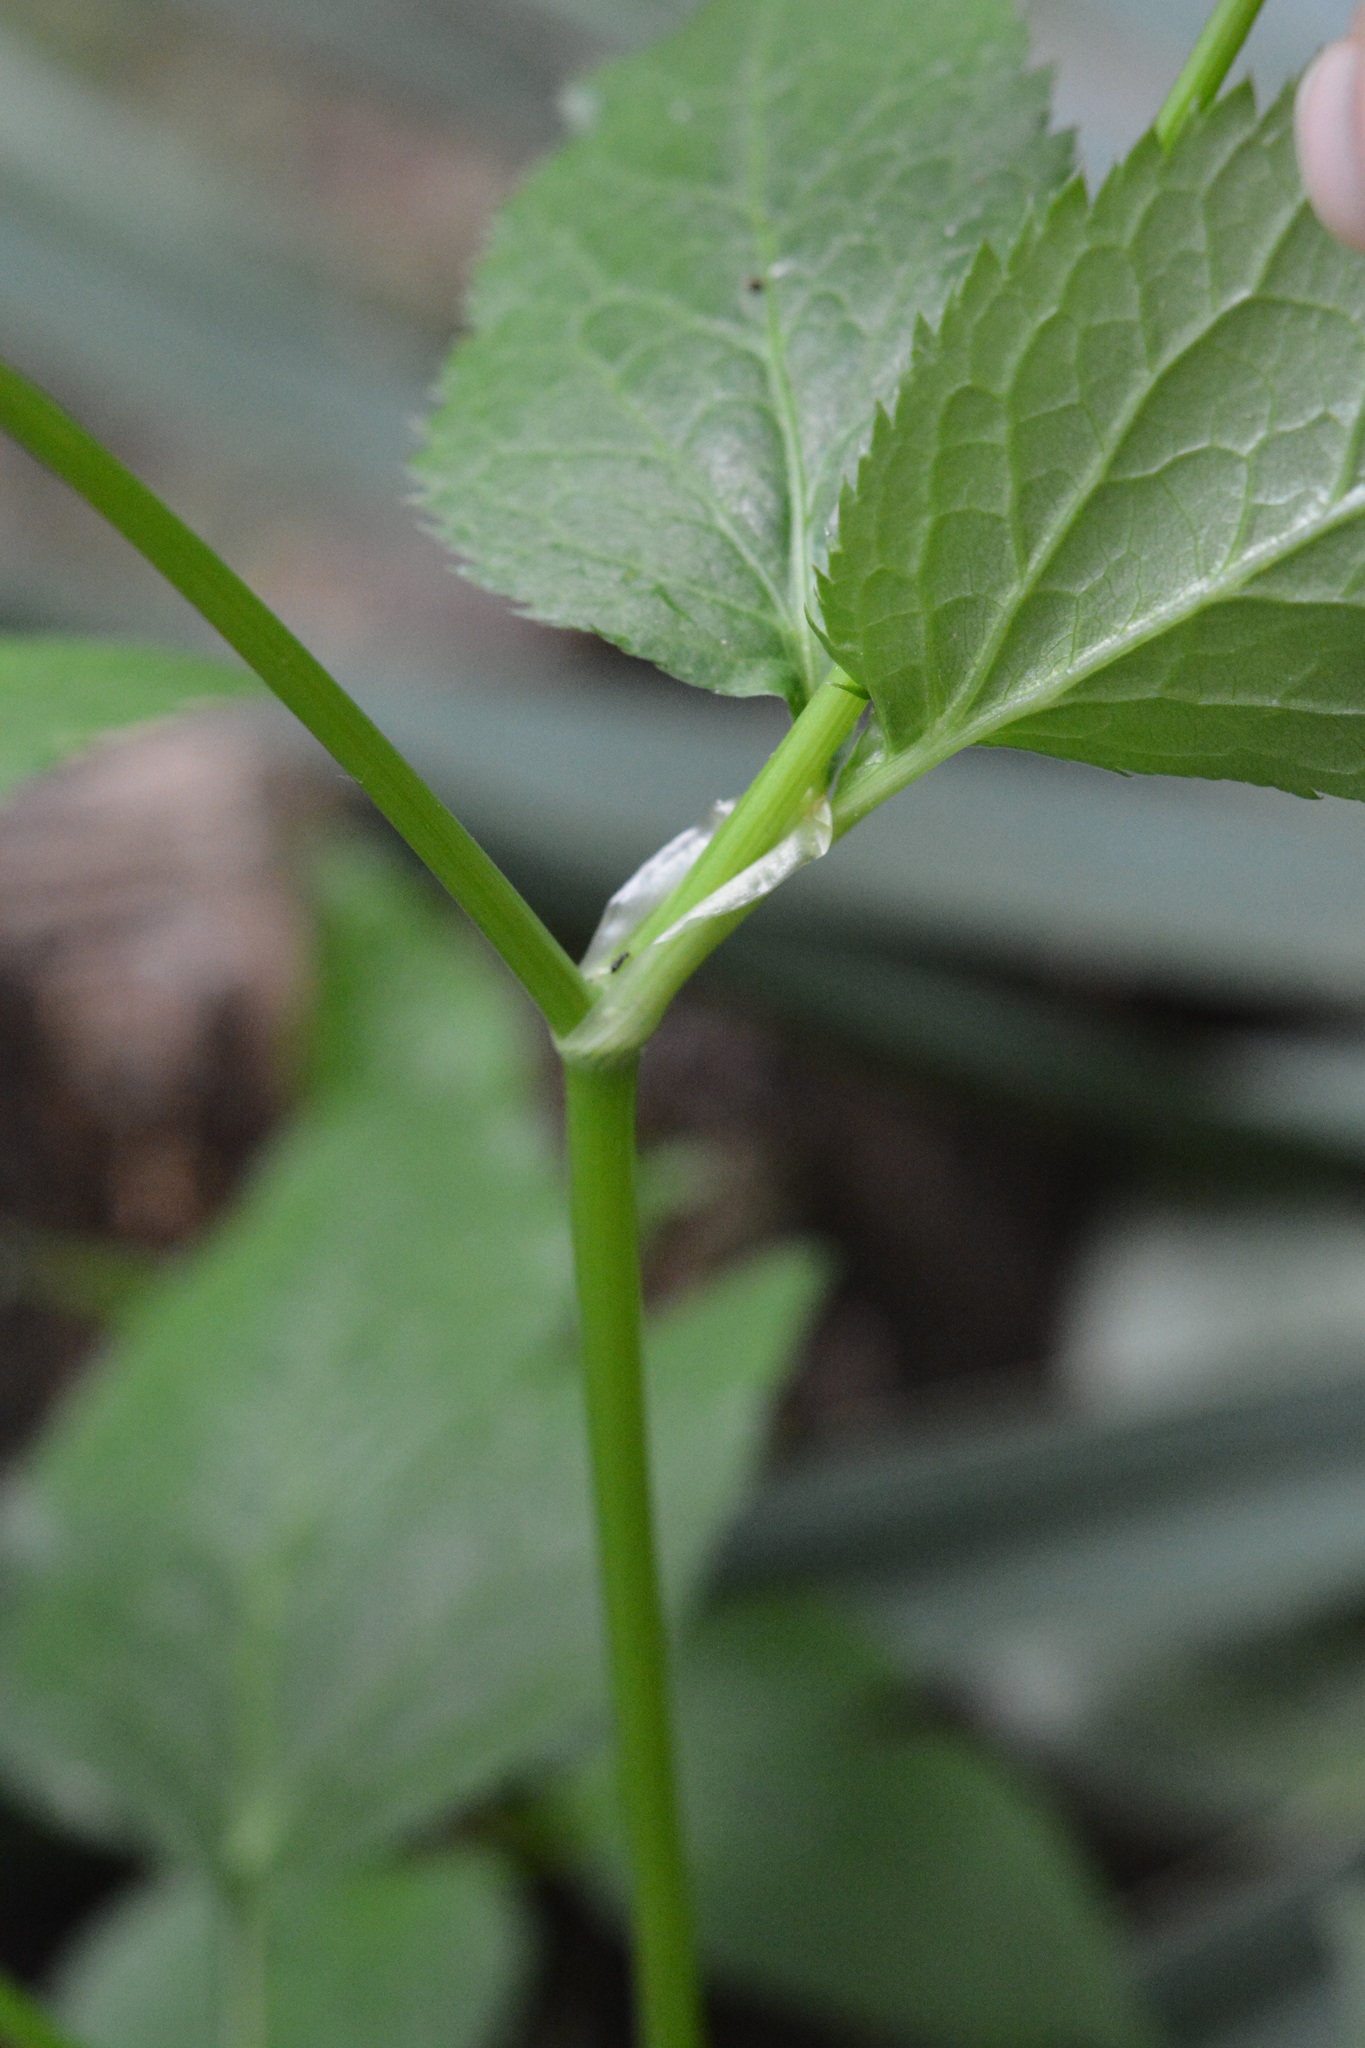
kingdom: Plantae
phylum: Tracheophyta
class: Magnoliopsida
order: Apiales
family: Apiaceae
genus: Cryptotaenia
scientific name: Cryptotaenia canadensis
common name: Honewort
